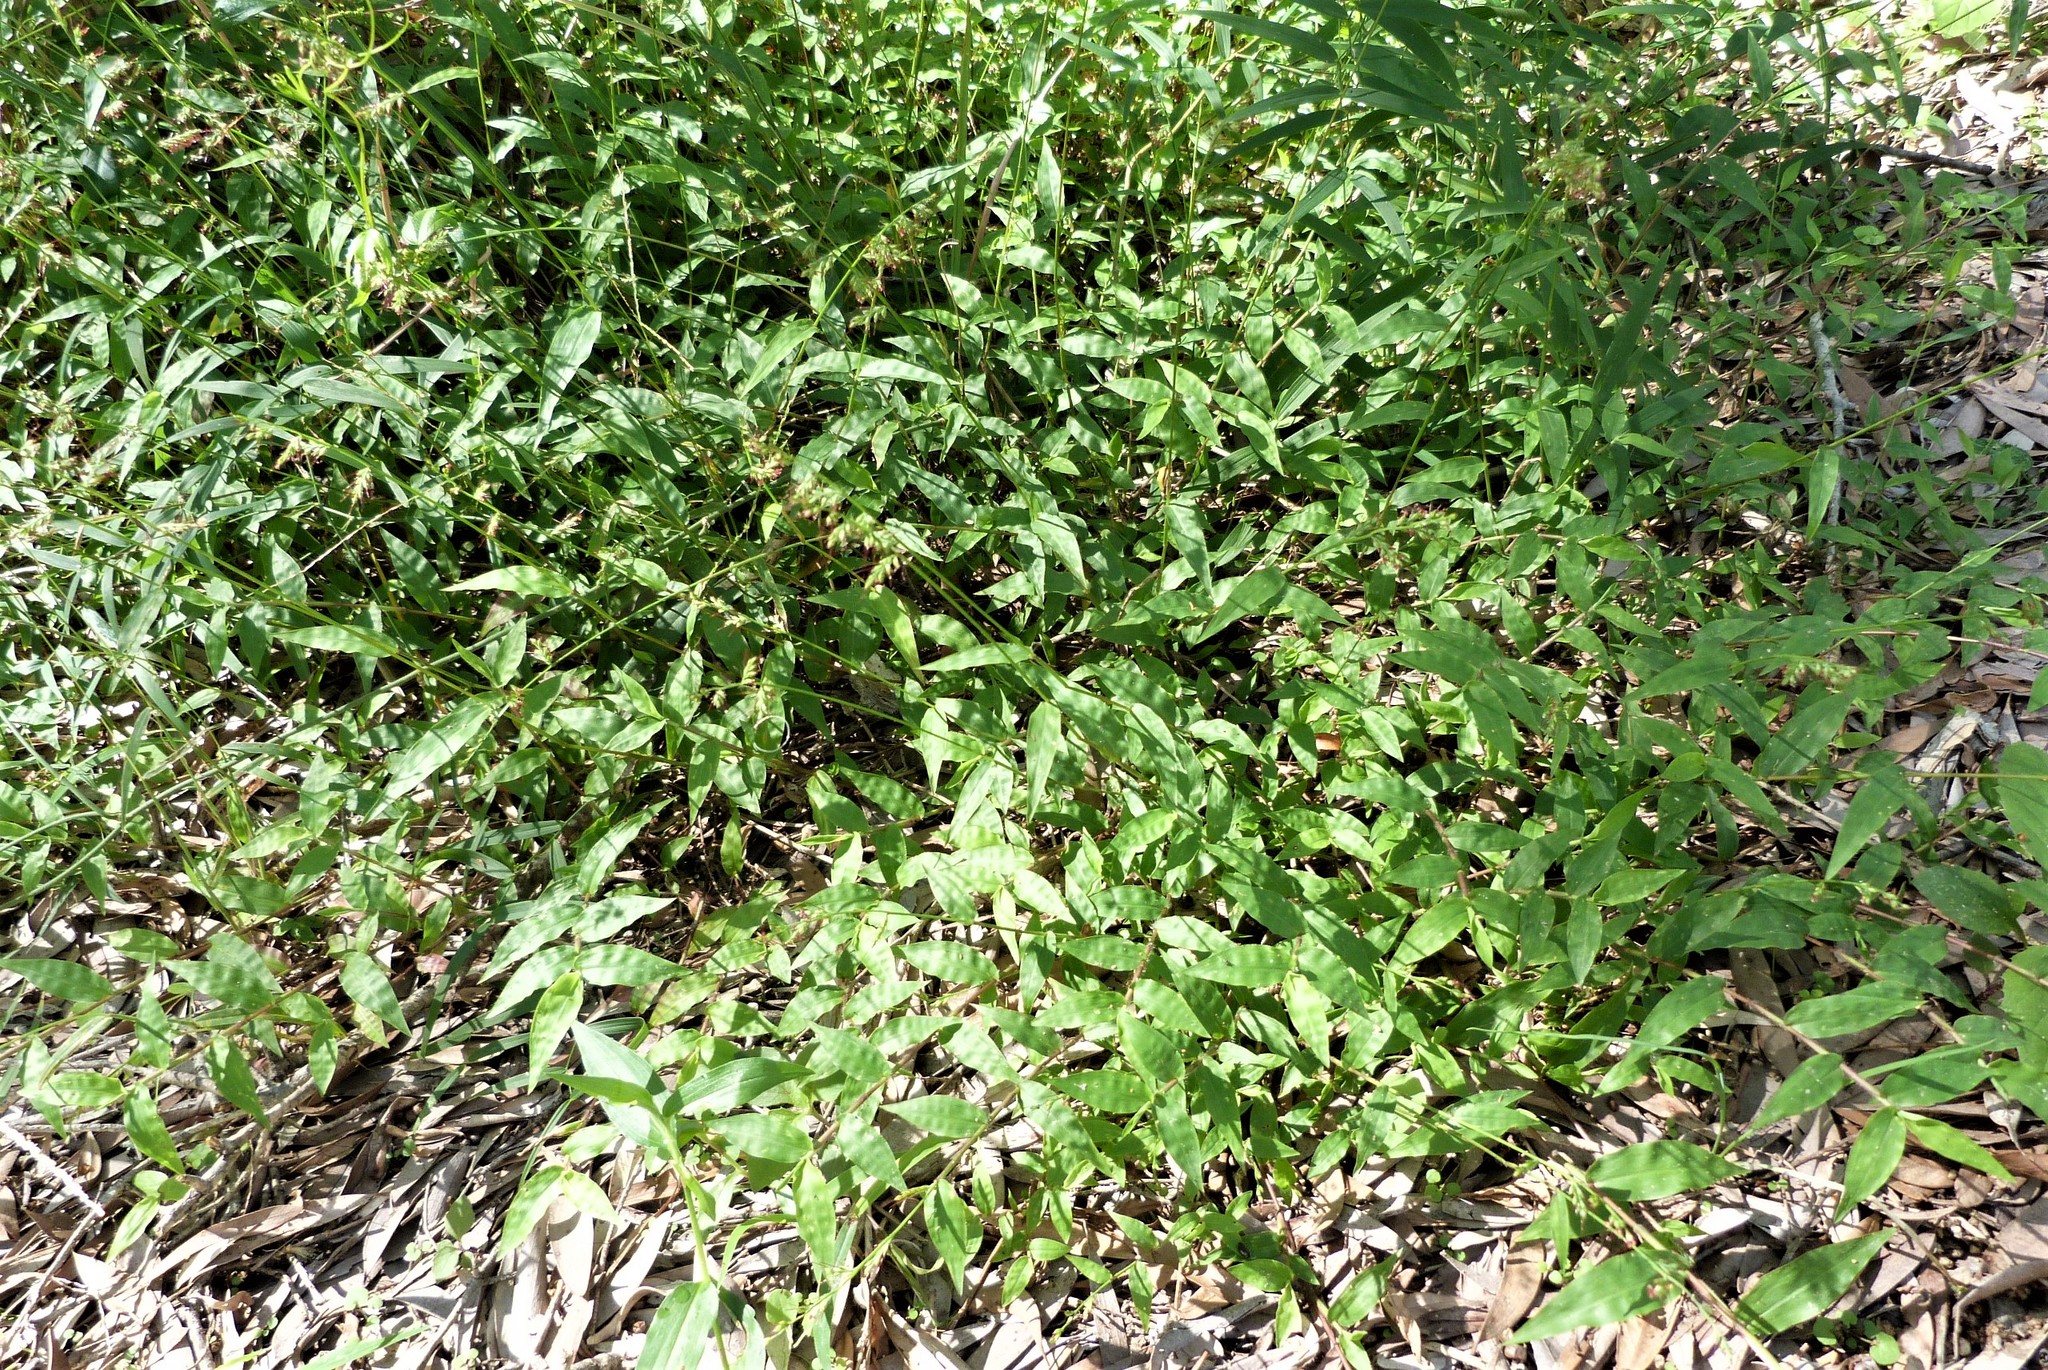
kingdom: Plantae
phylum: Tracheophyta
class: Liliopsida
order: Poales
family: Poaceae
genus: Oplismenus
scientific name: Oplismenus hirtellus
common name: Basketgrass
